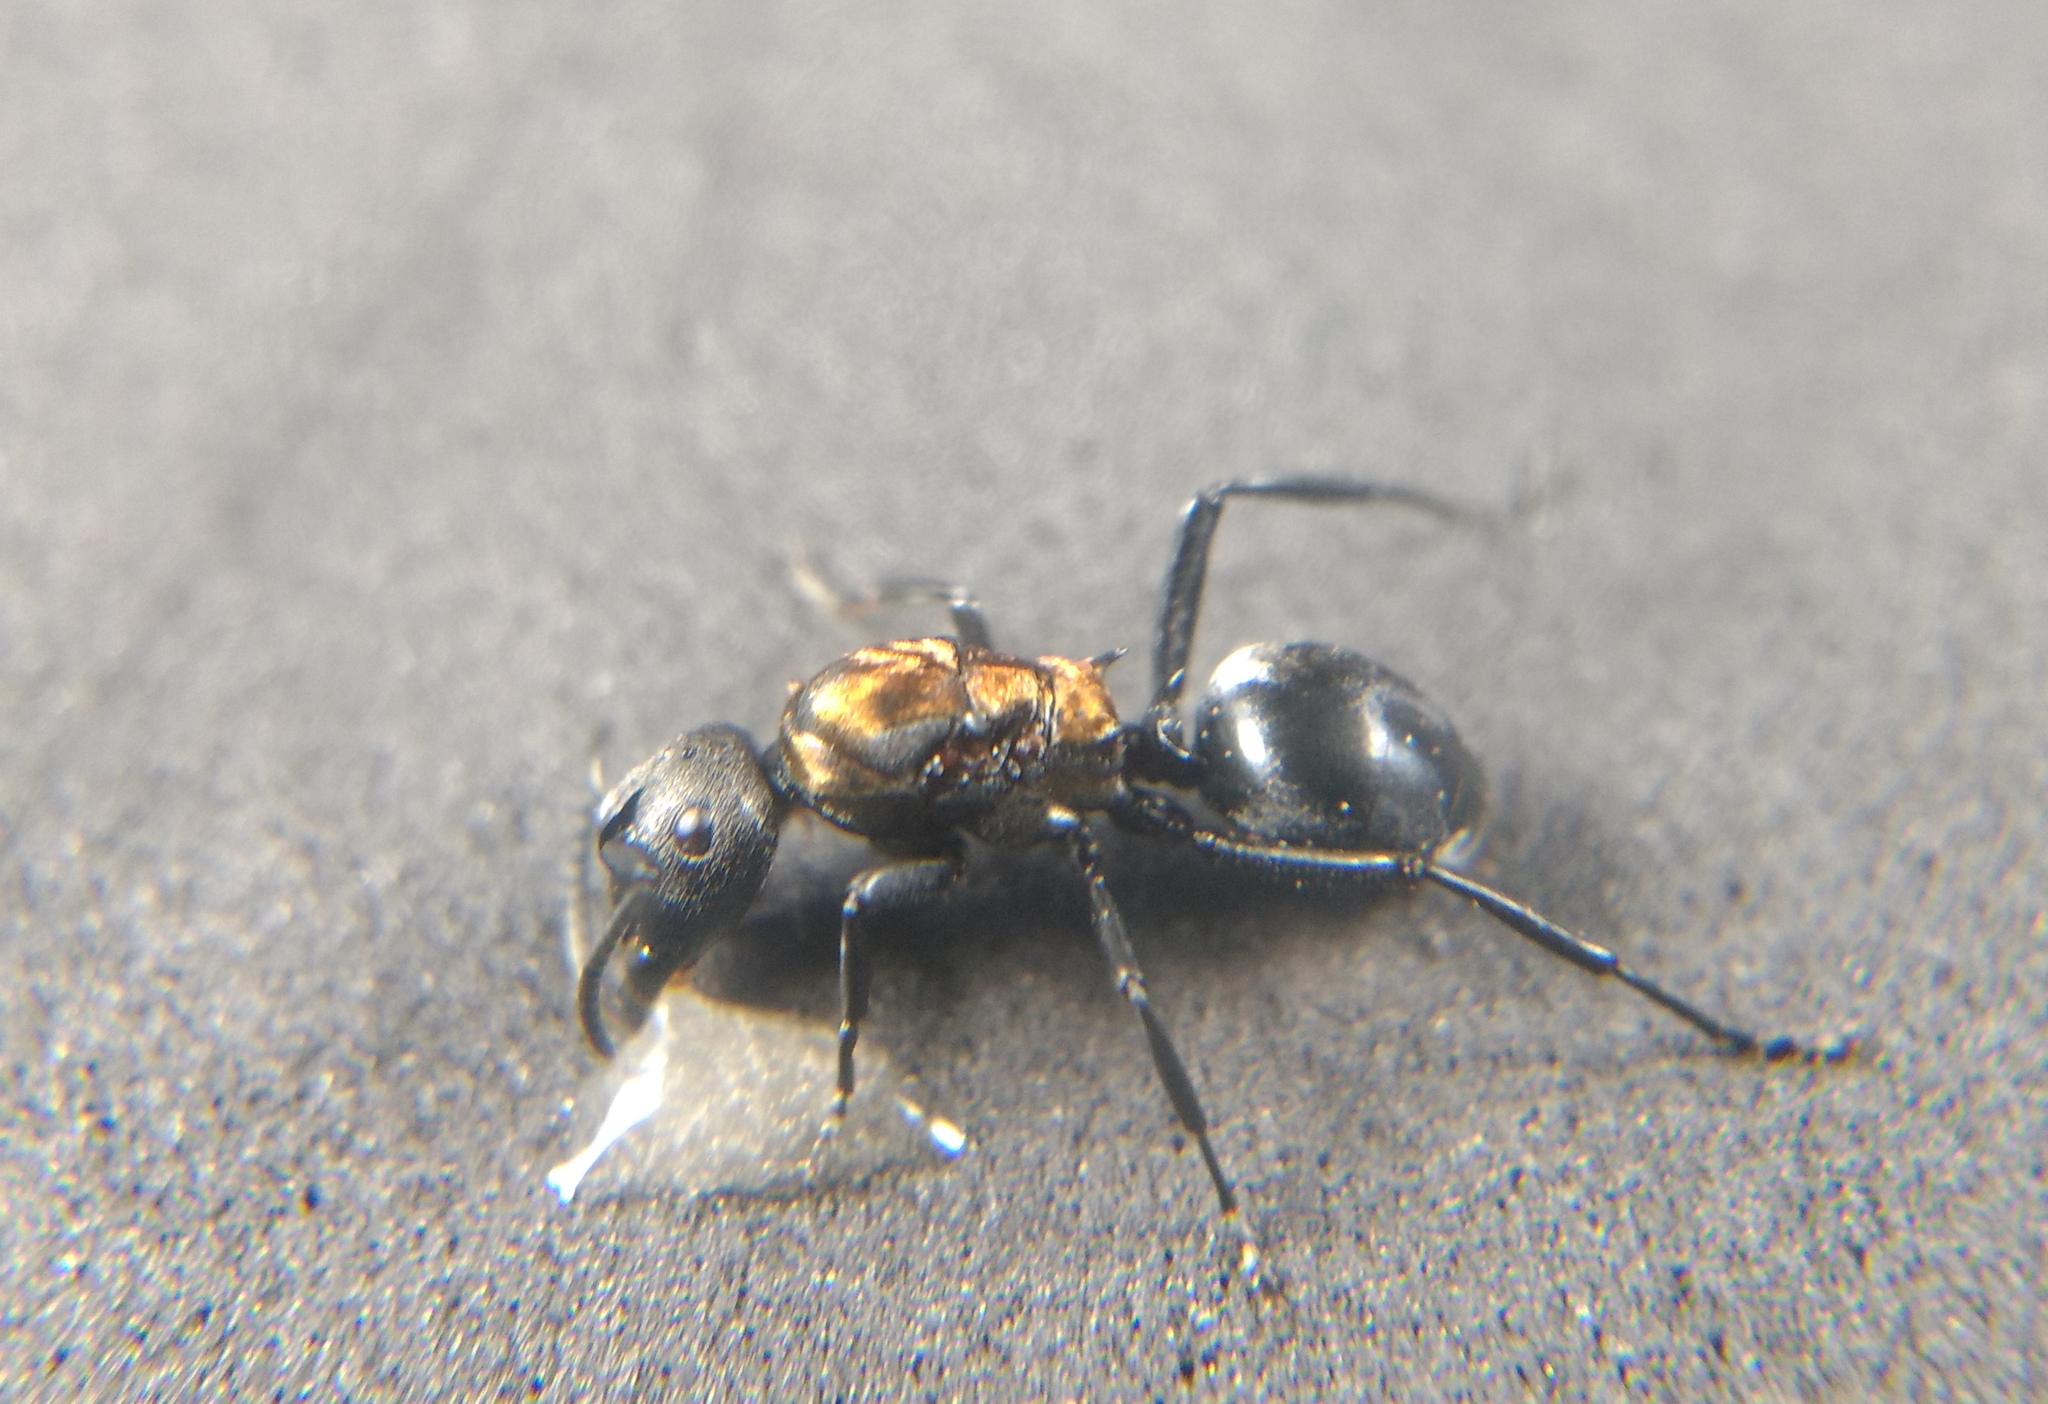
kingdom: Animalia
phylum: Arthropoda
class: Insecta
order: Hymenoptera
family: Formicidae
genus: Polyrhachis
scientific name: Polyrhachis ornata
